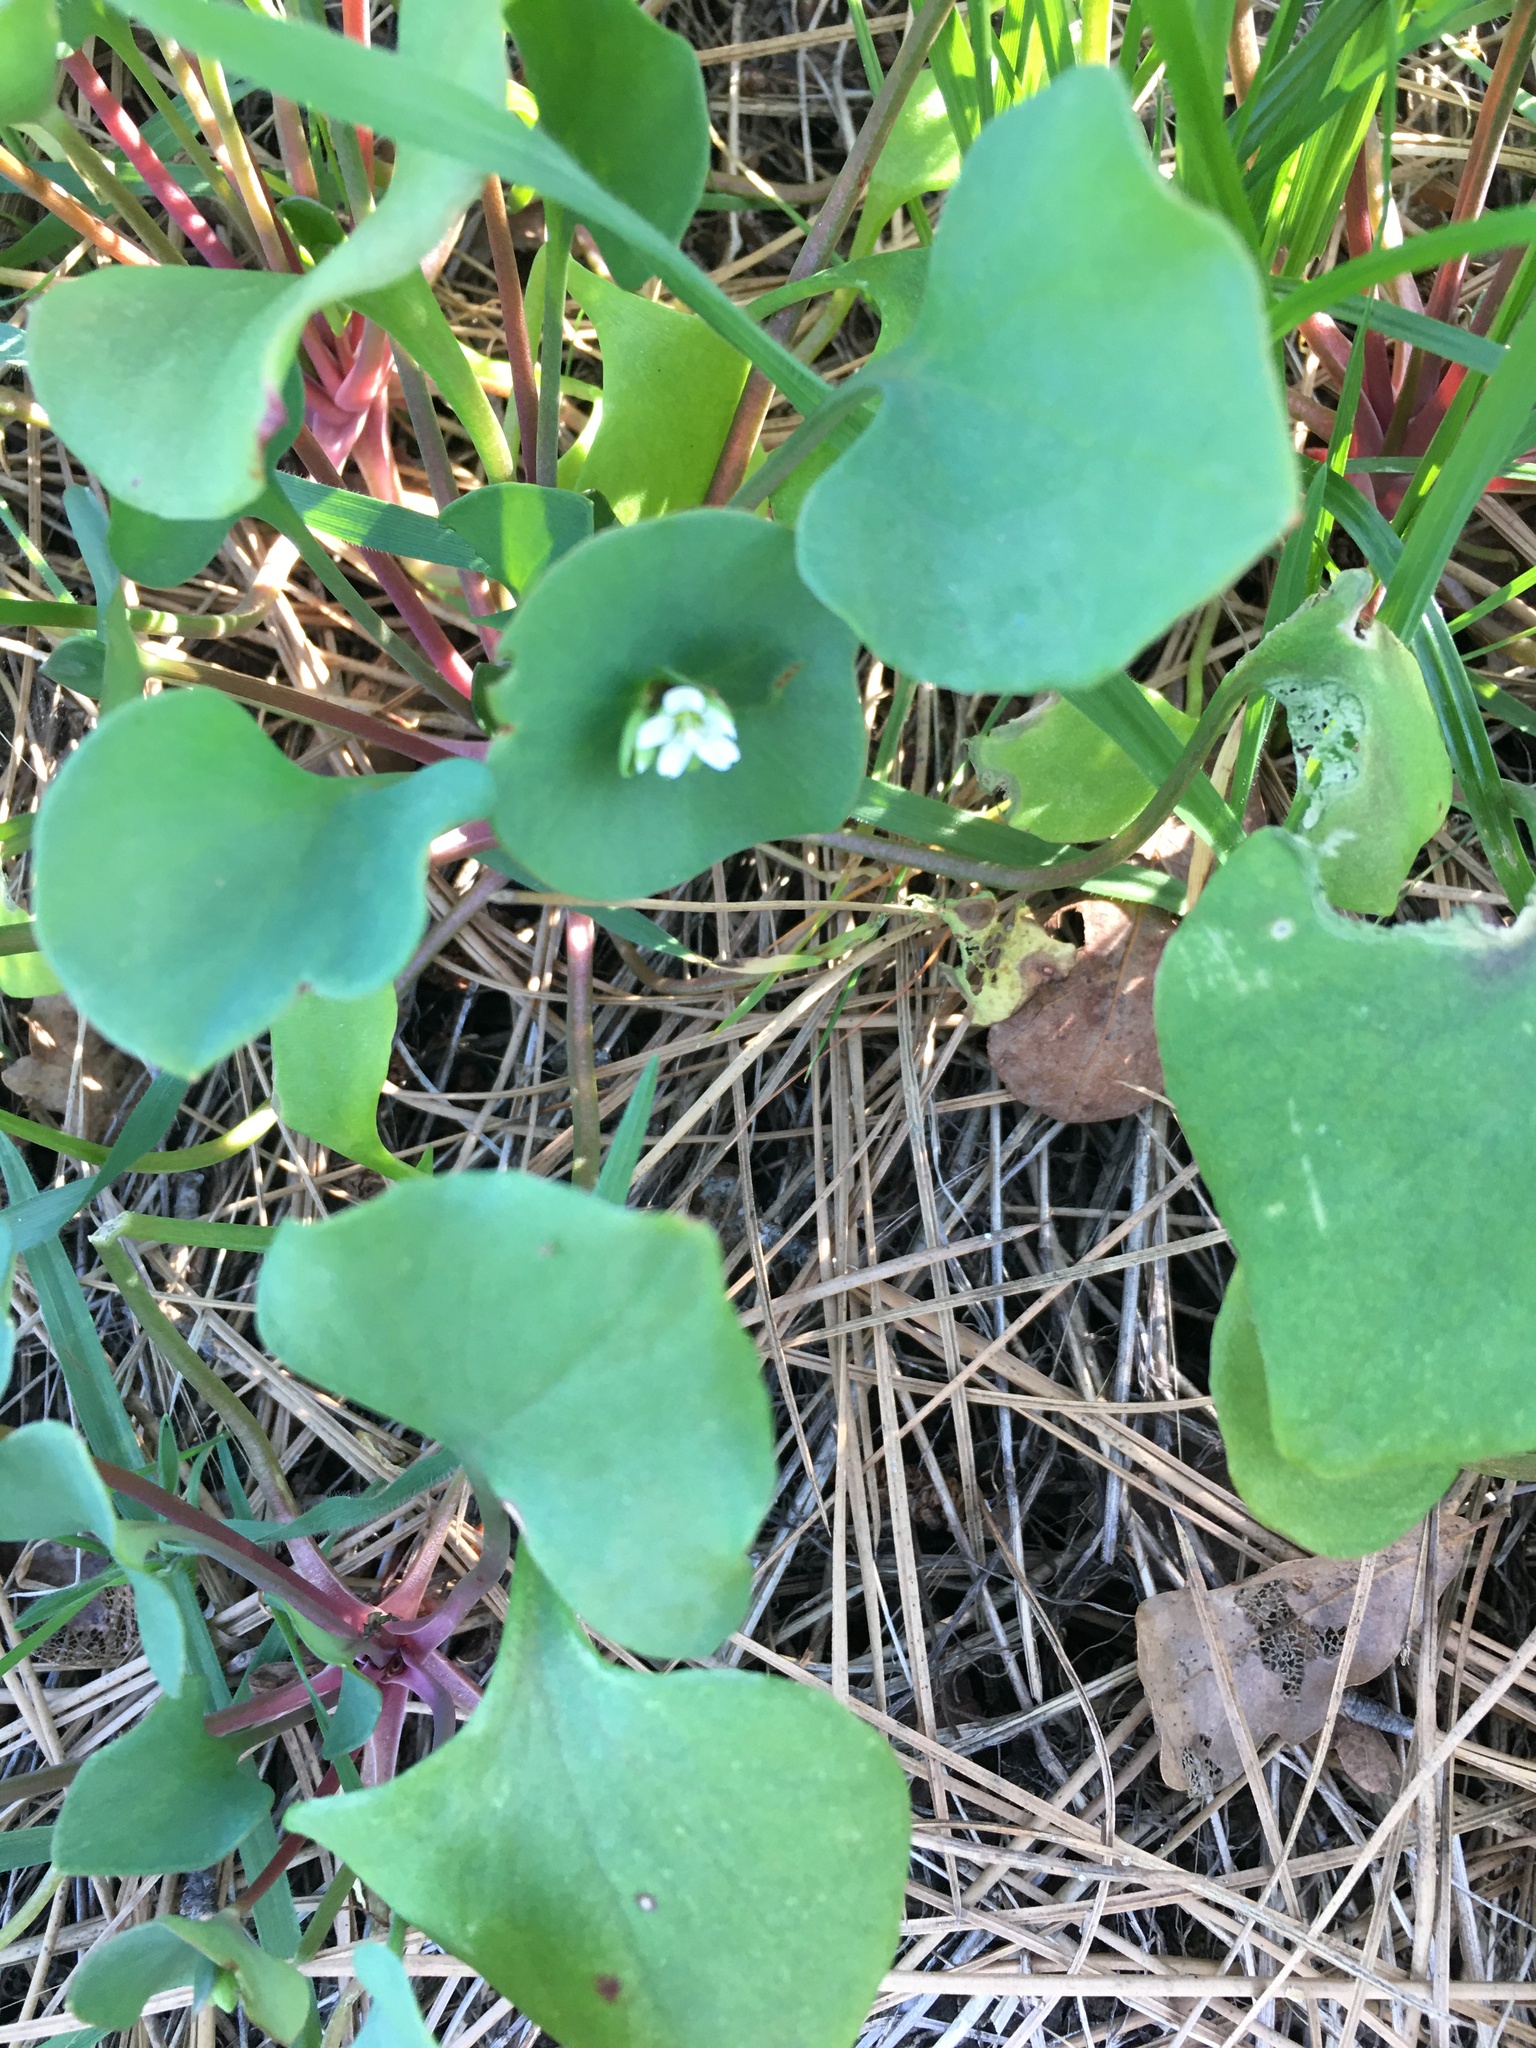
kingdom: Plantae
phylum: Tracheophyta
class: Magnoliopsida
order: Caryophyllales
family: Montiaceae
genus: Claytonia
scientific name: Claytonia perfoliata
